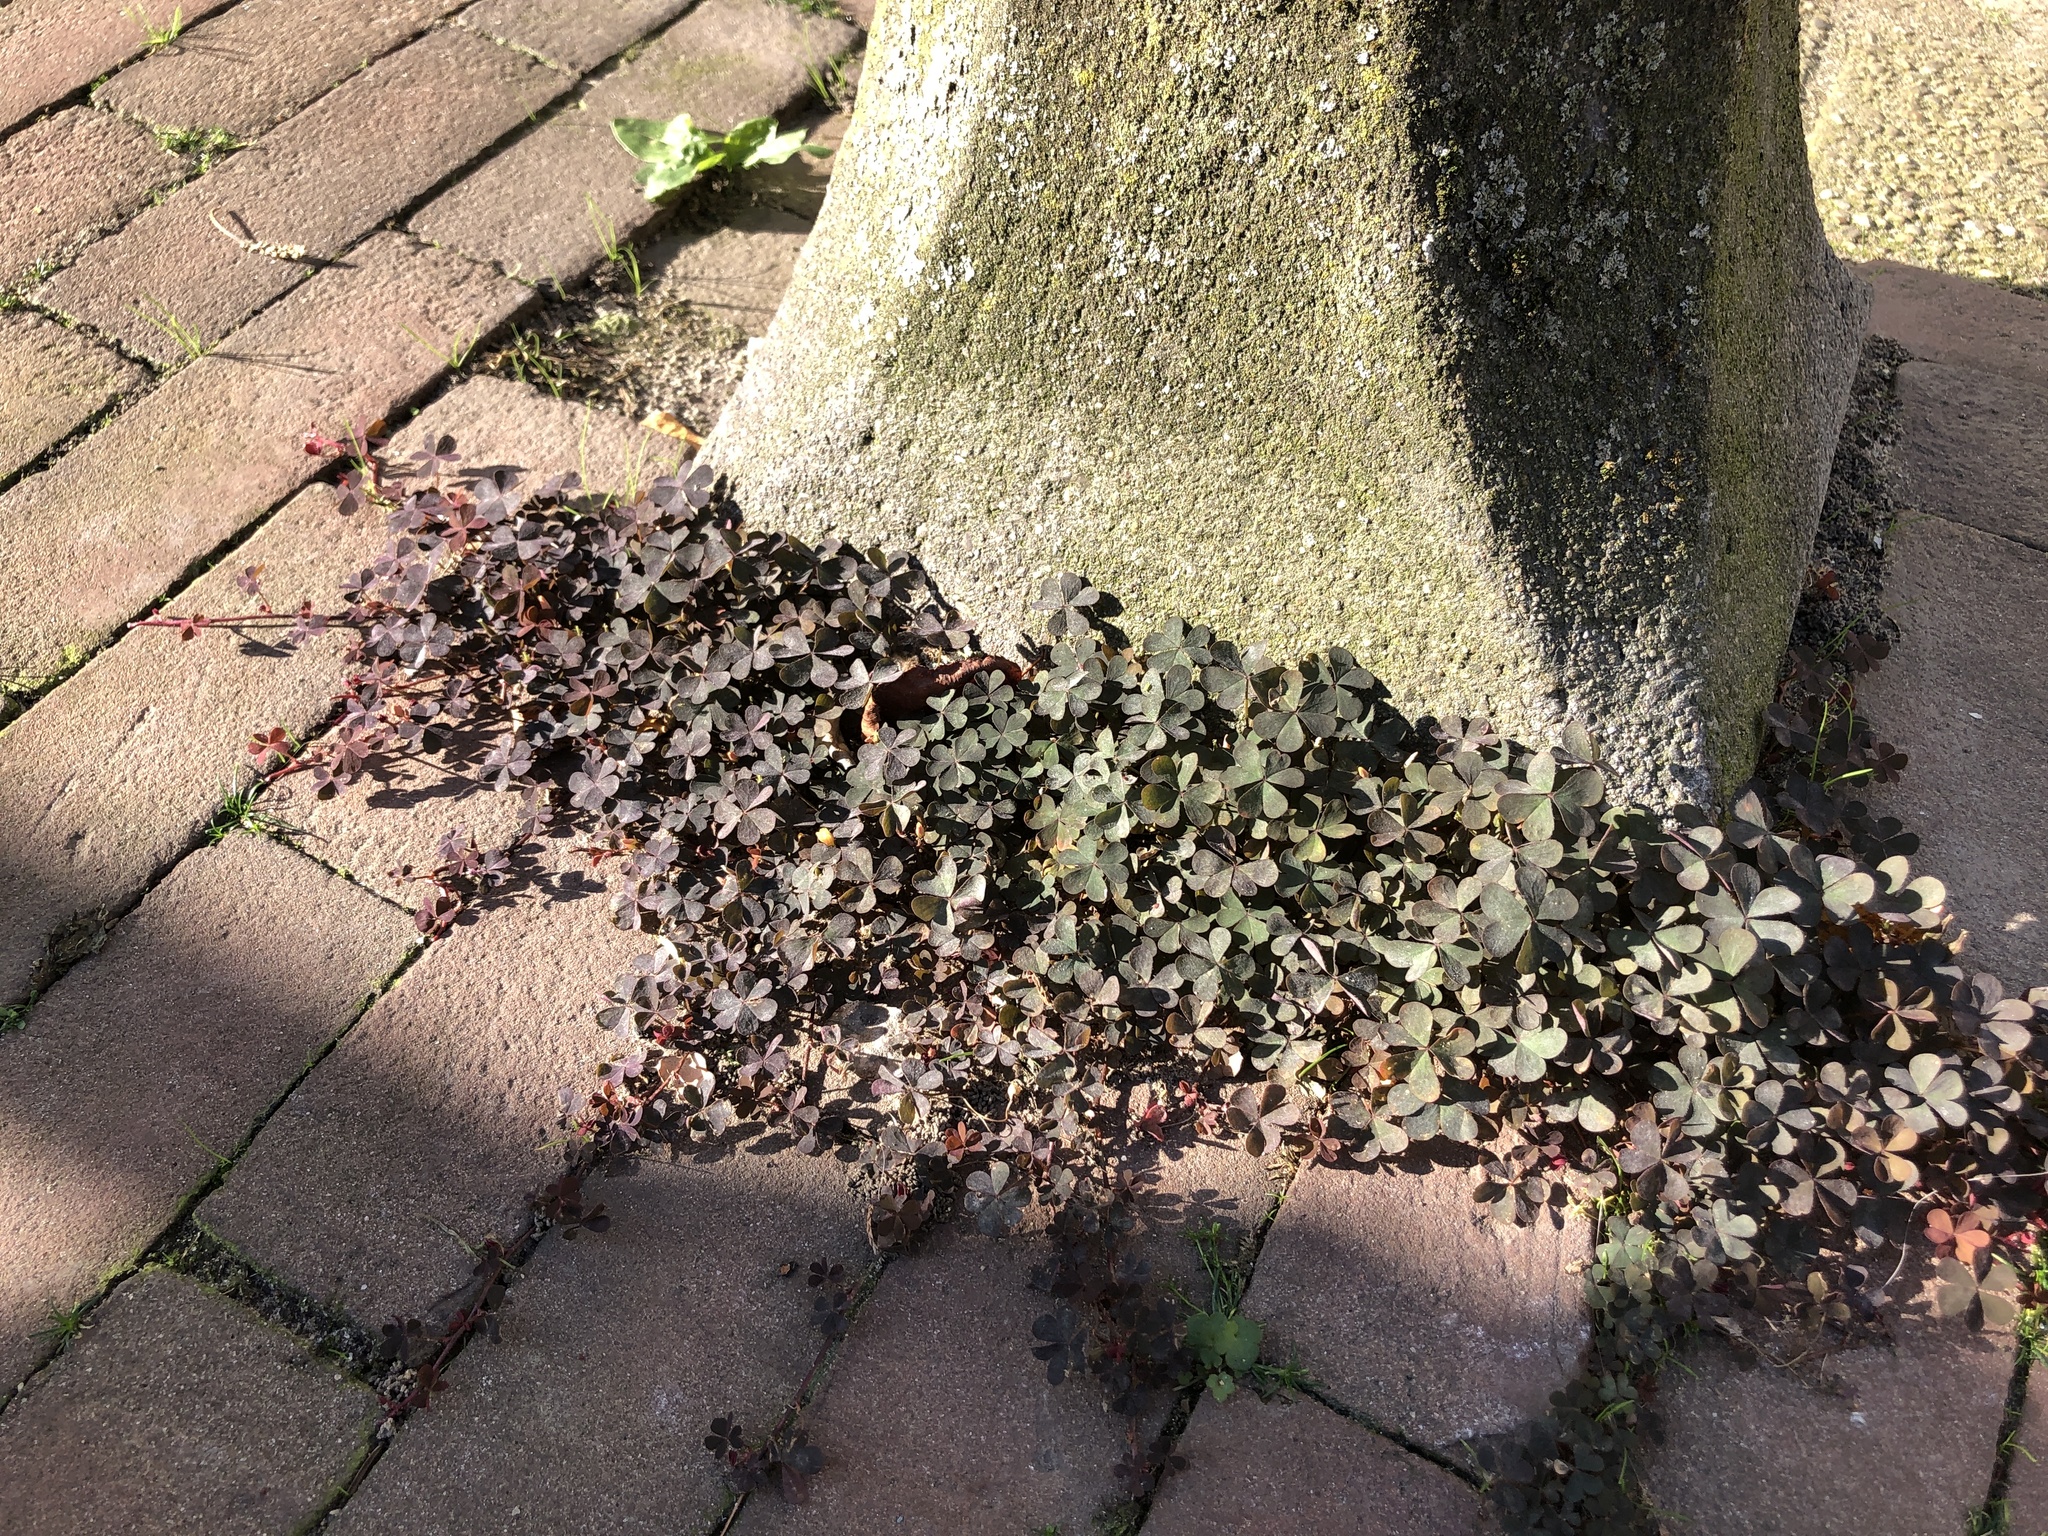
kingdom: Plantae
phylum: Tracheophyta
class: Magnoliopsida
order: Oxalidales
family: Oxalidaceae
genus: Oxalis
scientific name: Oxalis corniculata
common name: Procumbent yellow-sorrel
